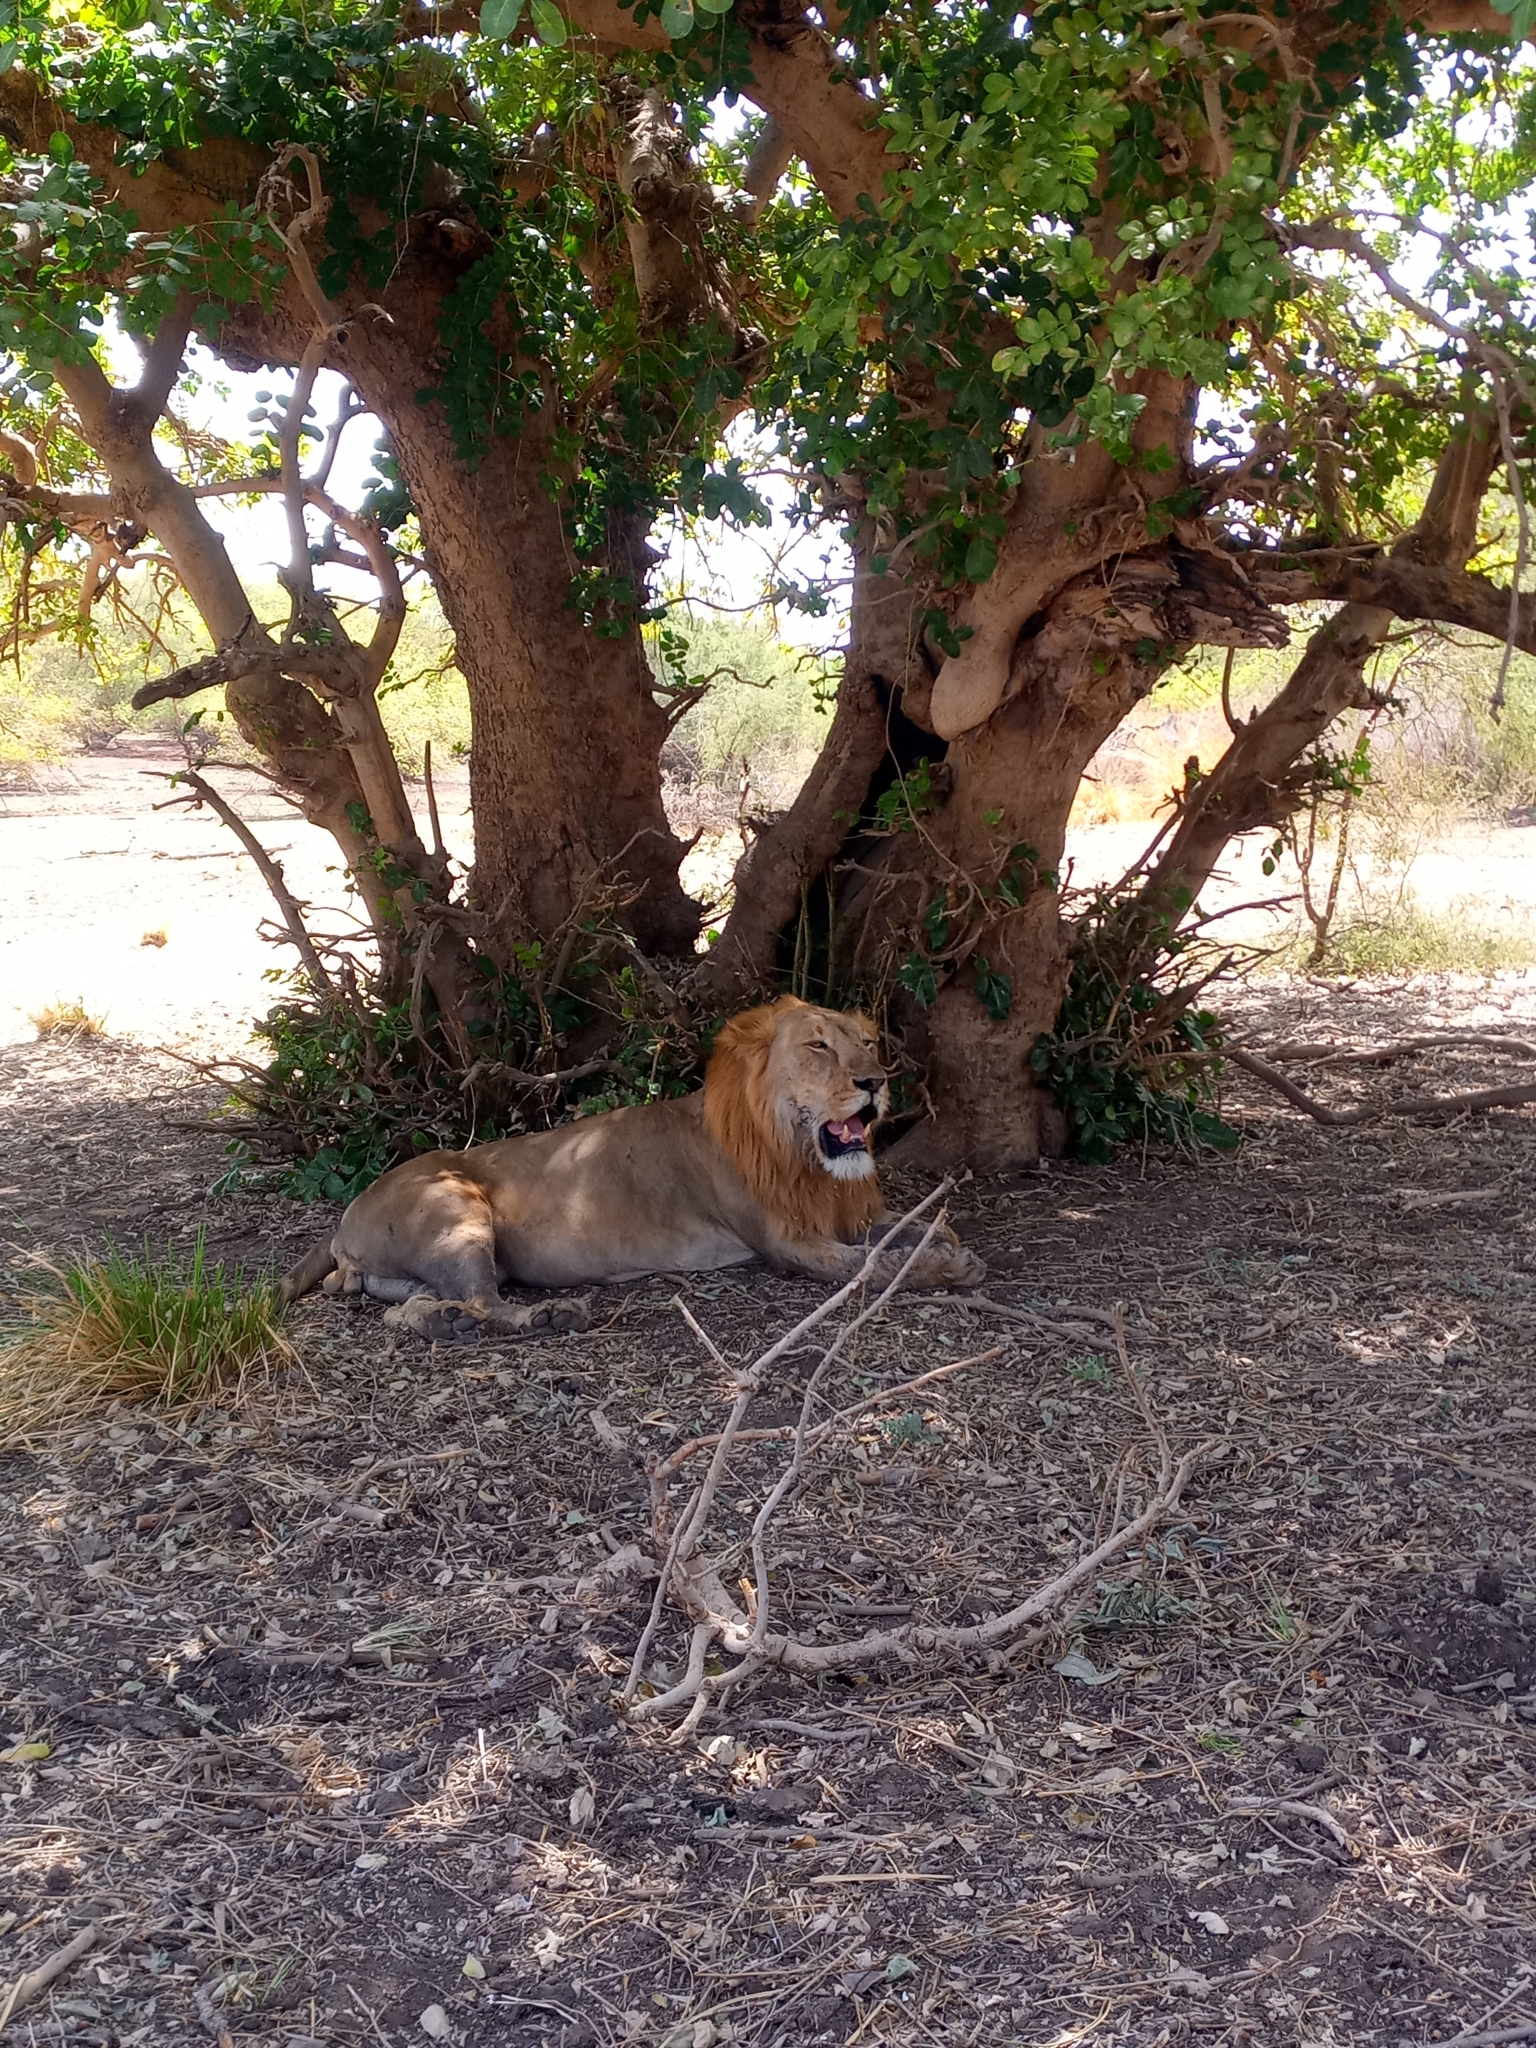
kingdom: Animalia
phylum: Chordata
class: Mammalia
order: Carnivora
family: Felidae
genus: Panthera
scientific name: Panthera leo
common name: Lion
